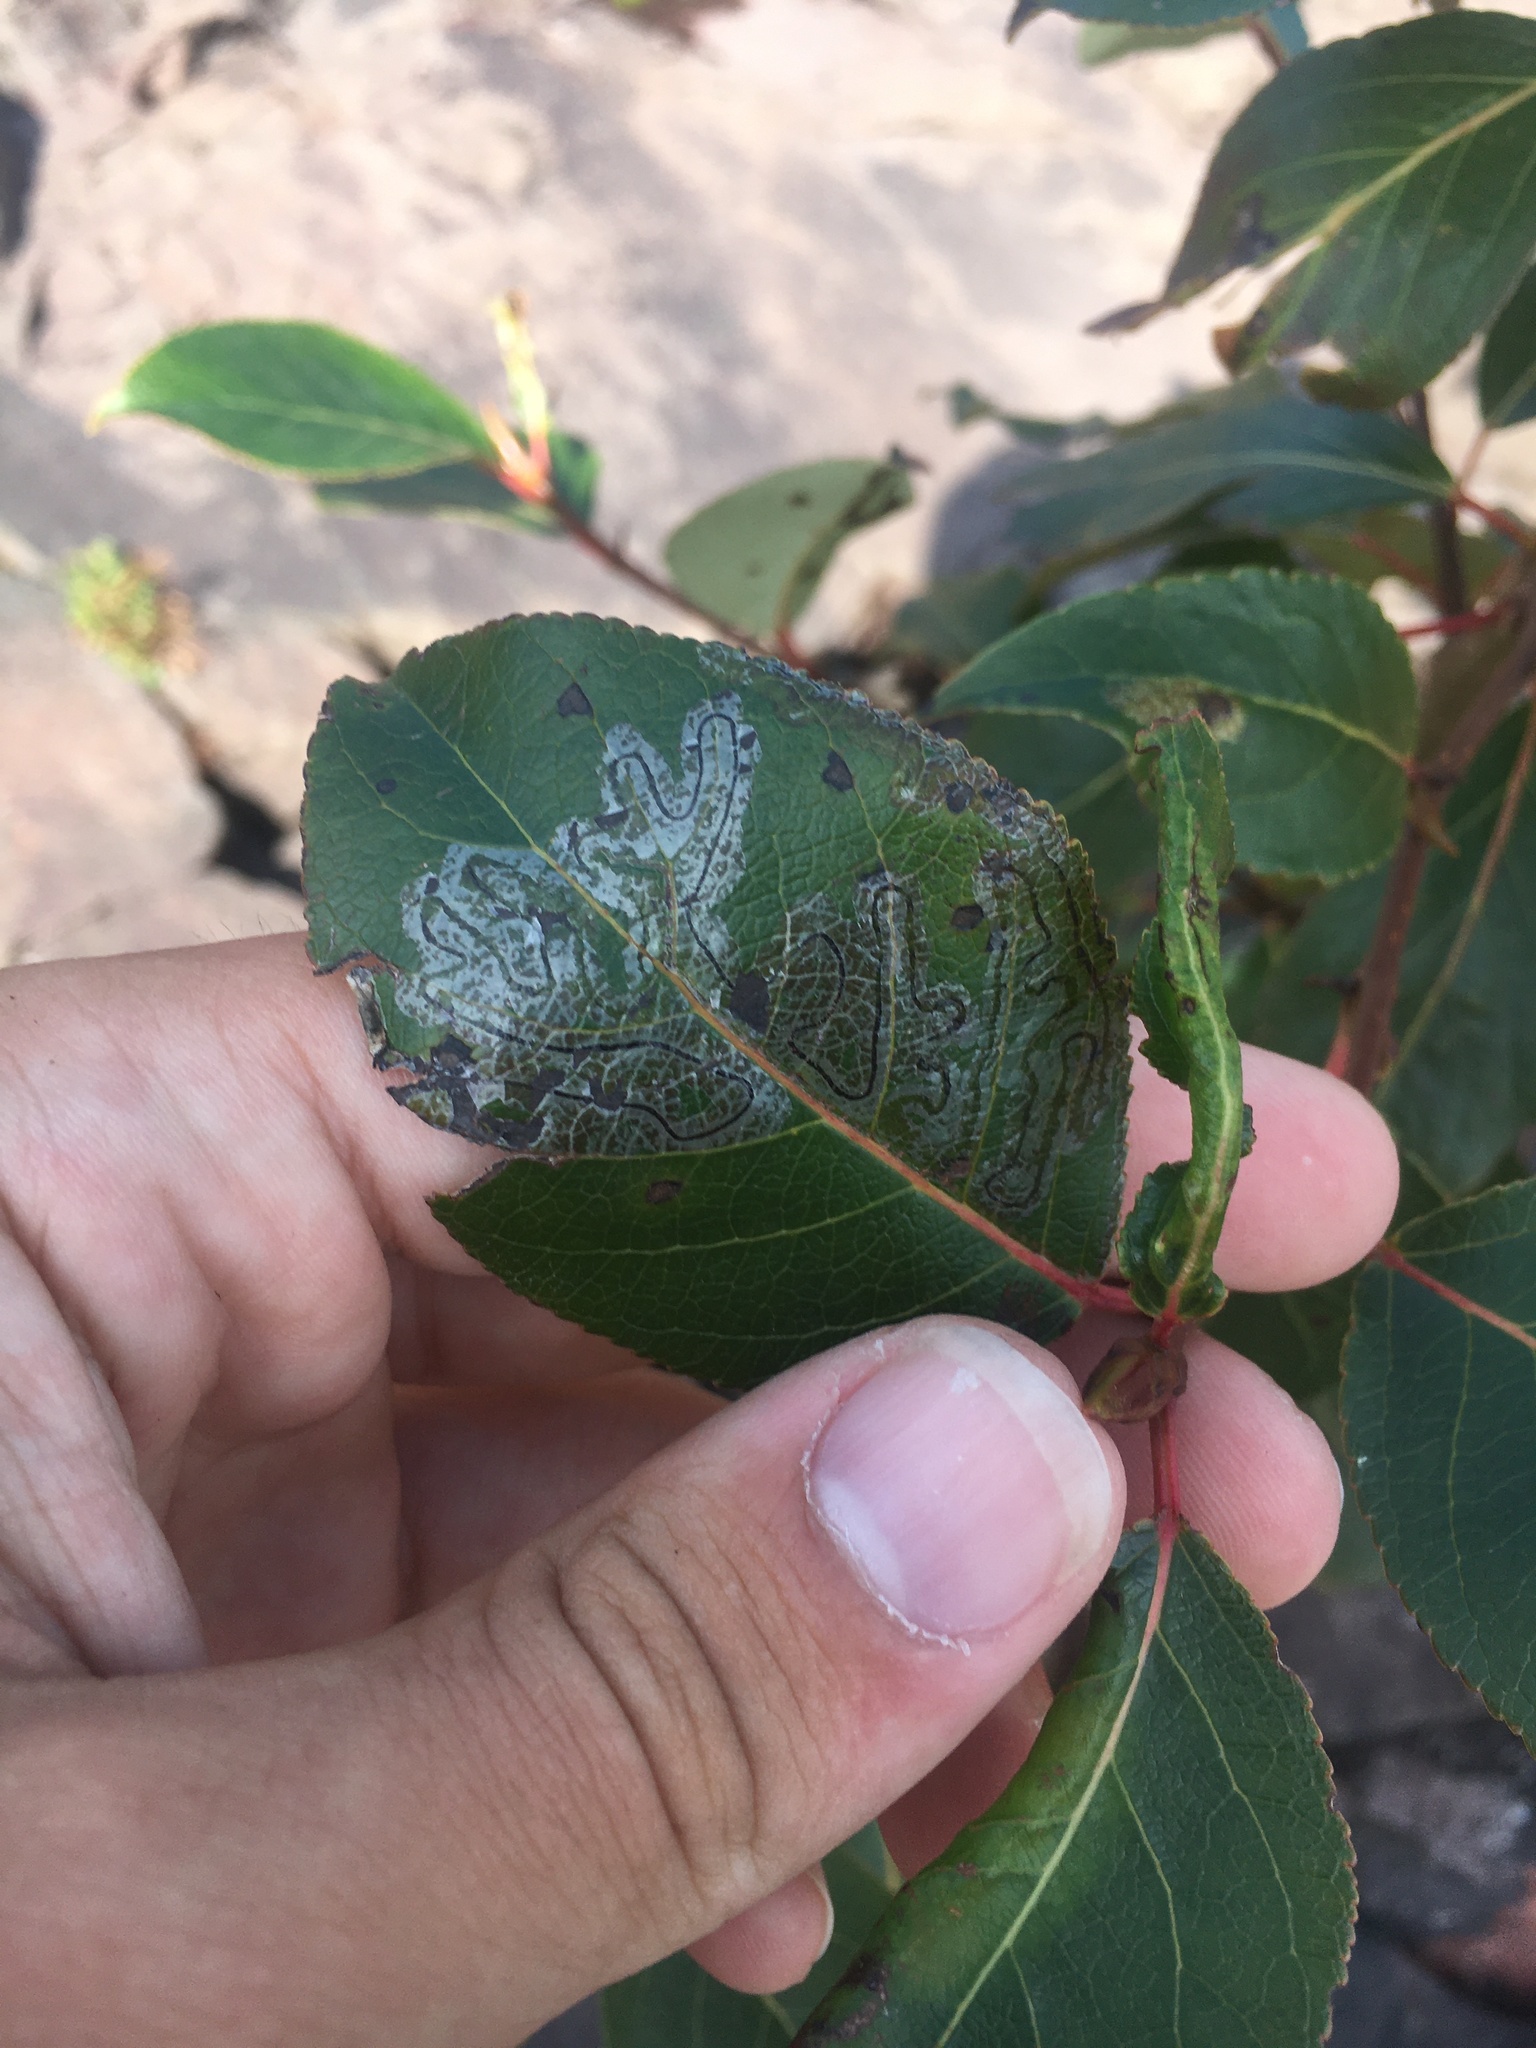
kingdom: Animalia
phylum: Arthropoda
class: Insecta
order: Lepidoptera
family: Gracillariidae
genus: Phyllocnistis
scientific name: Phyllocnistis populiella
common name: Aspen serpentine leafminer moth
